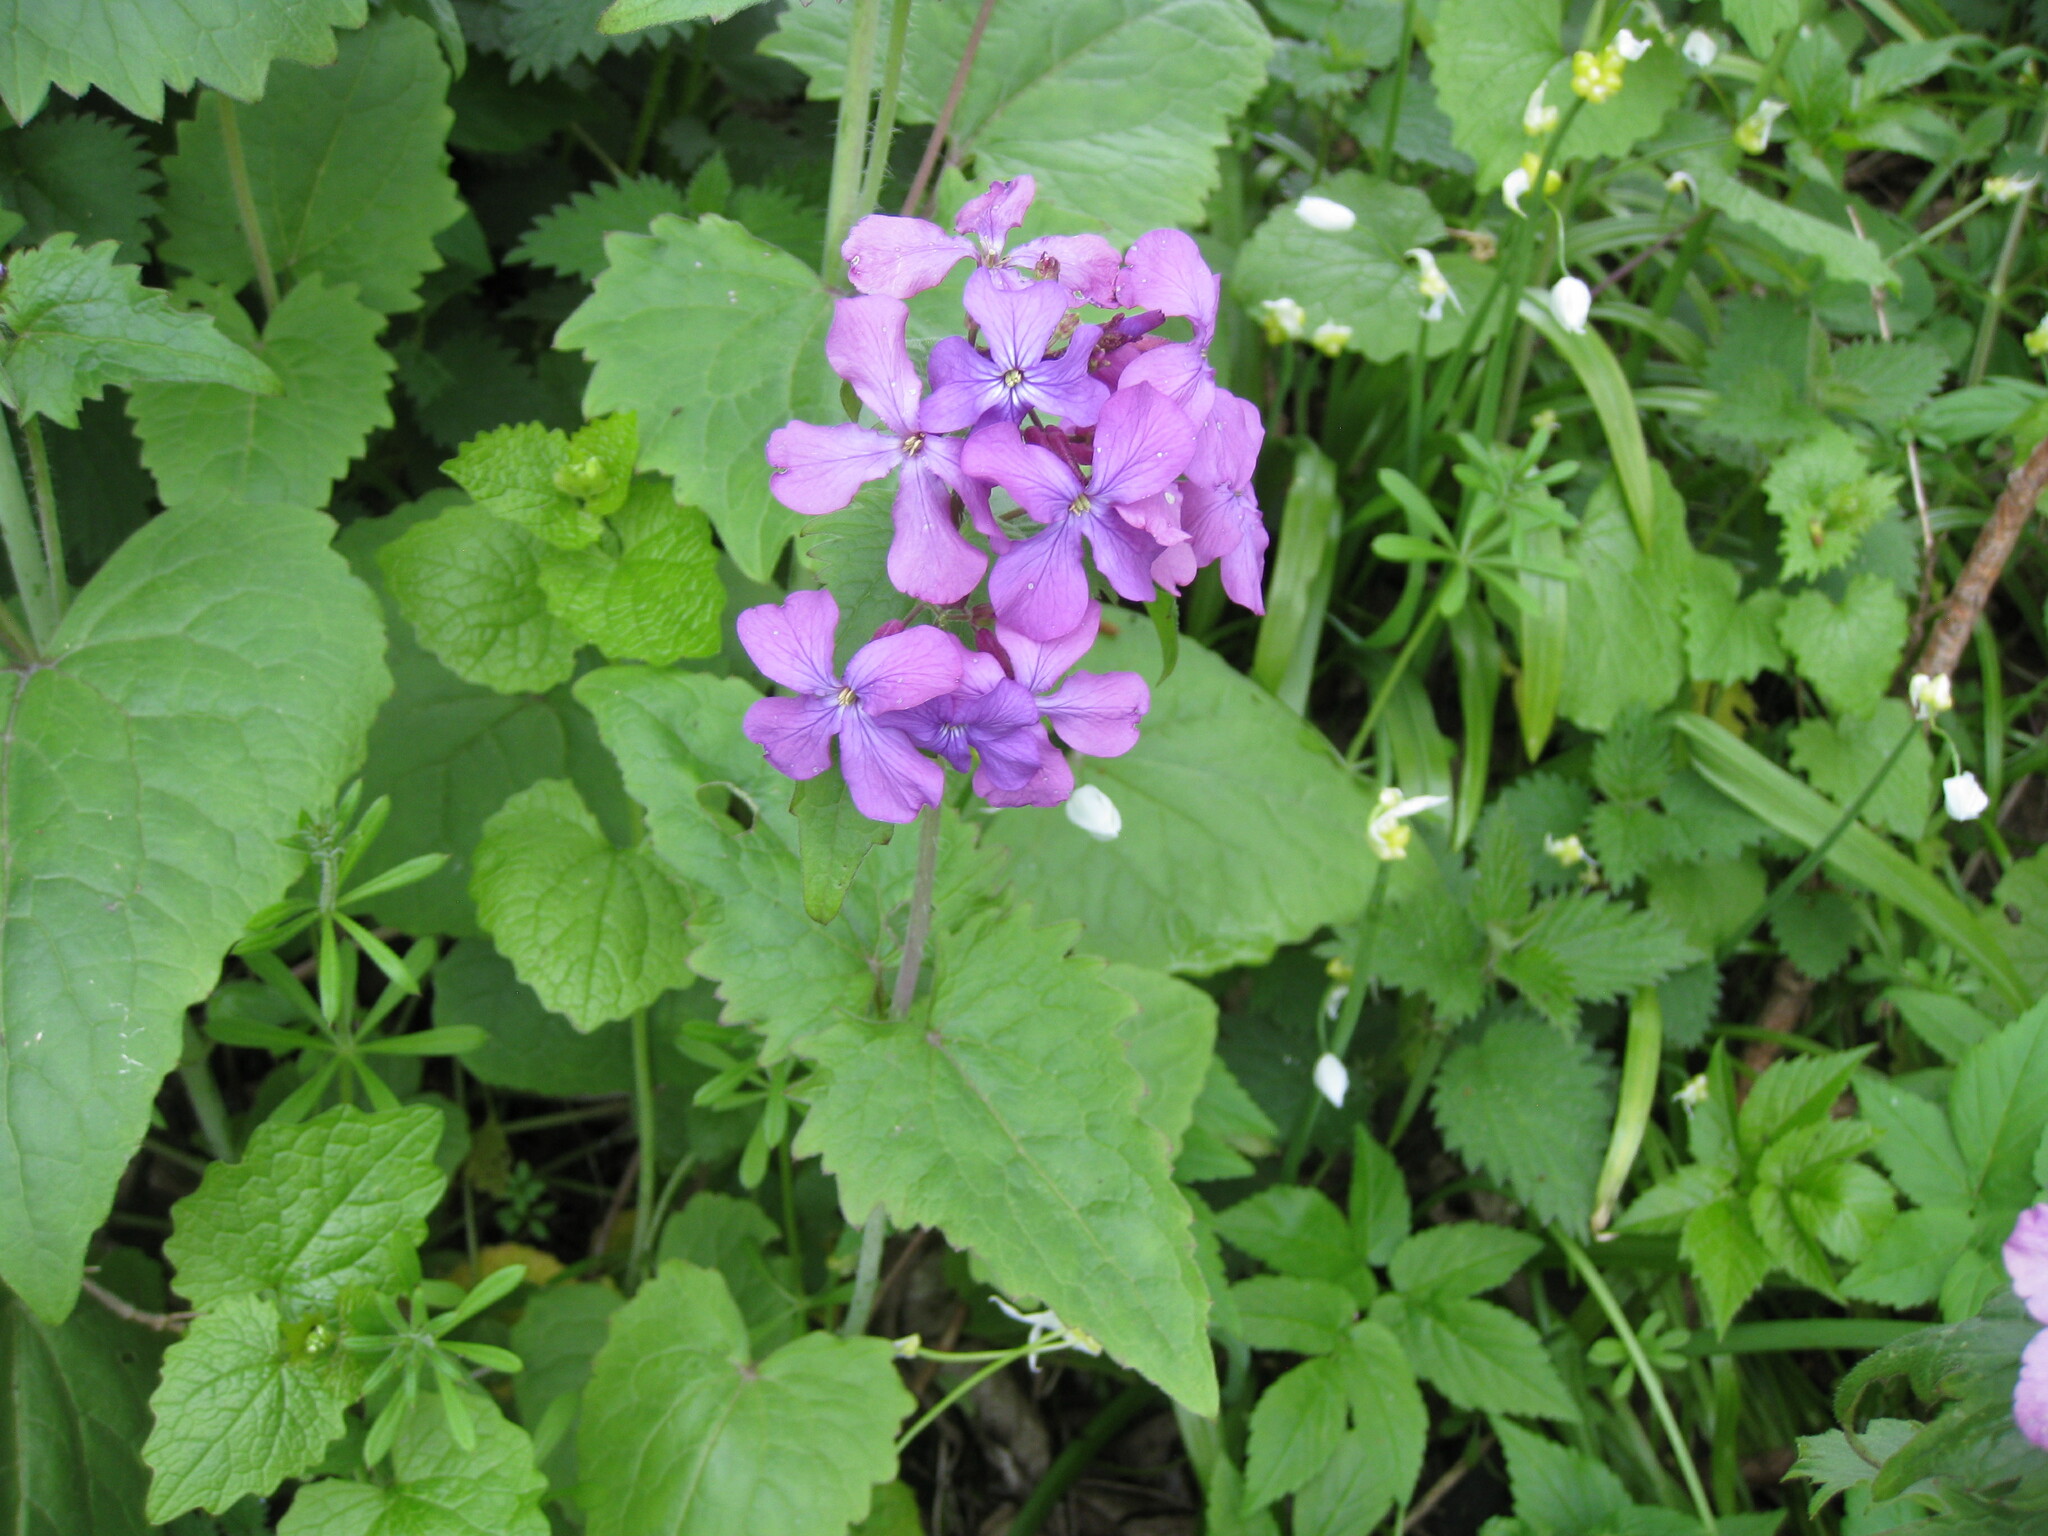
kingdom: Plantae
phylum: Tracheophyta
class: Magnoliopsida
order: Brassicales
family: Brassicaceae
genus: Lunaria
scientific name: Lunaria annua
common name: Honesty
